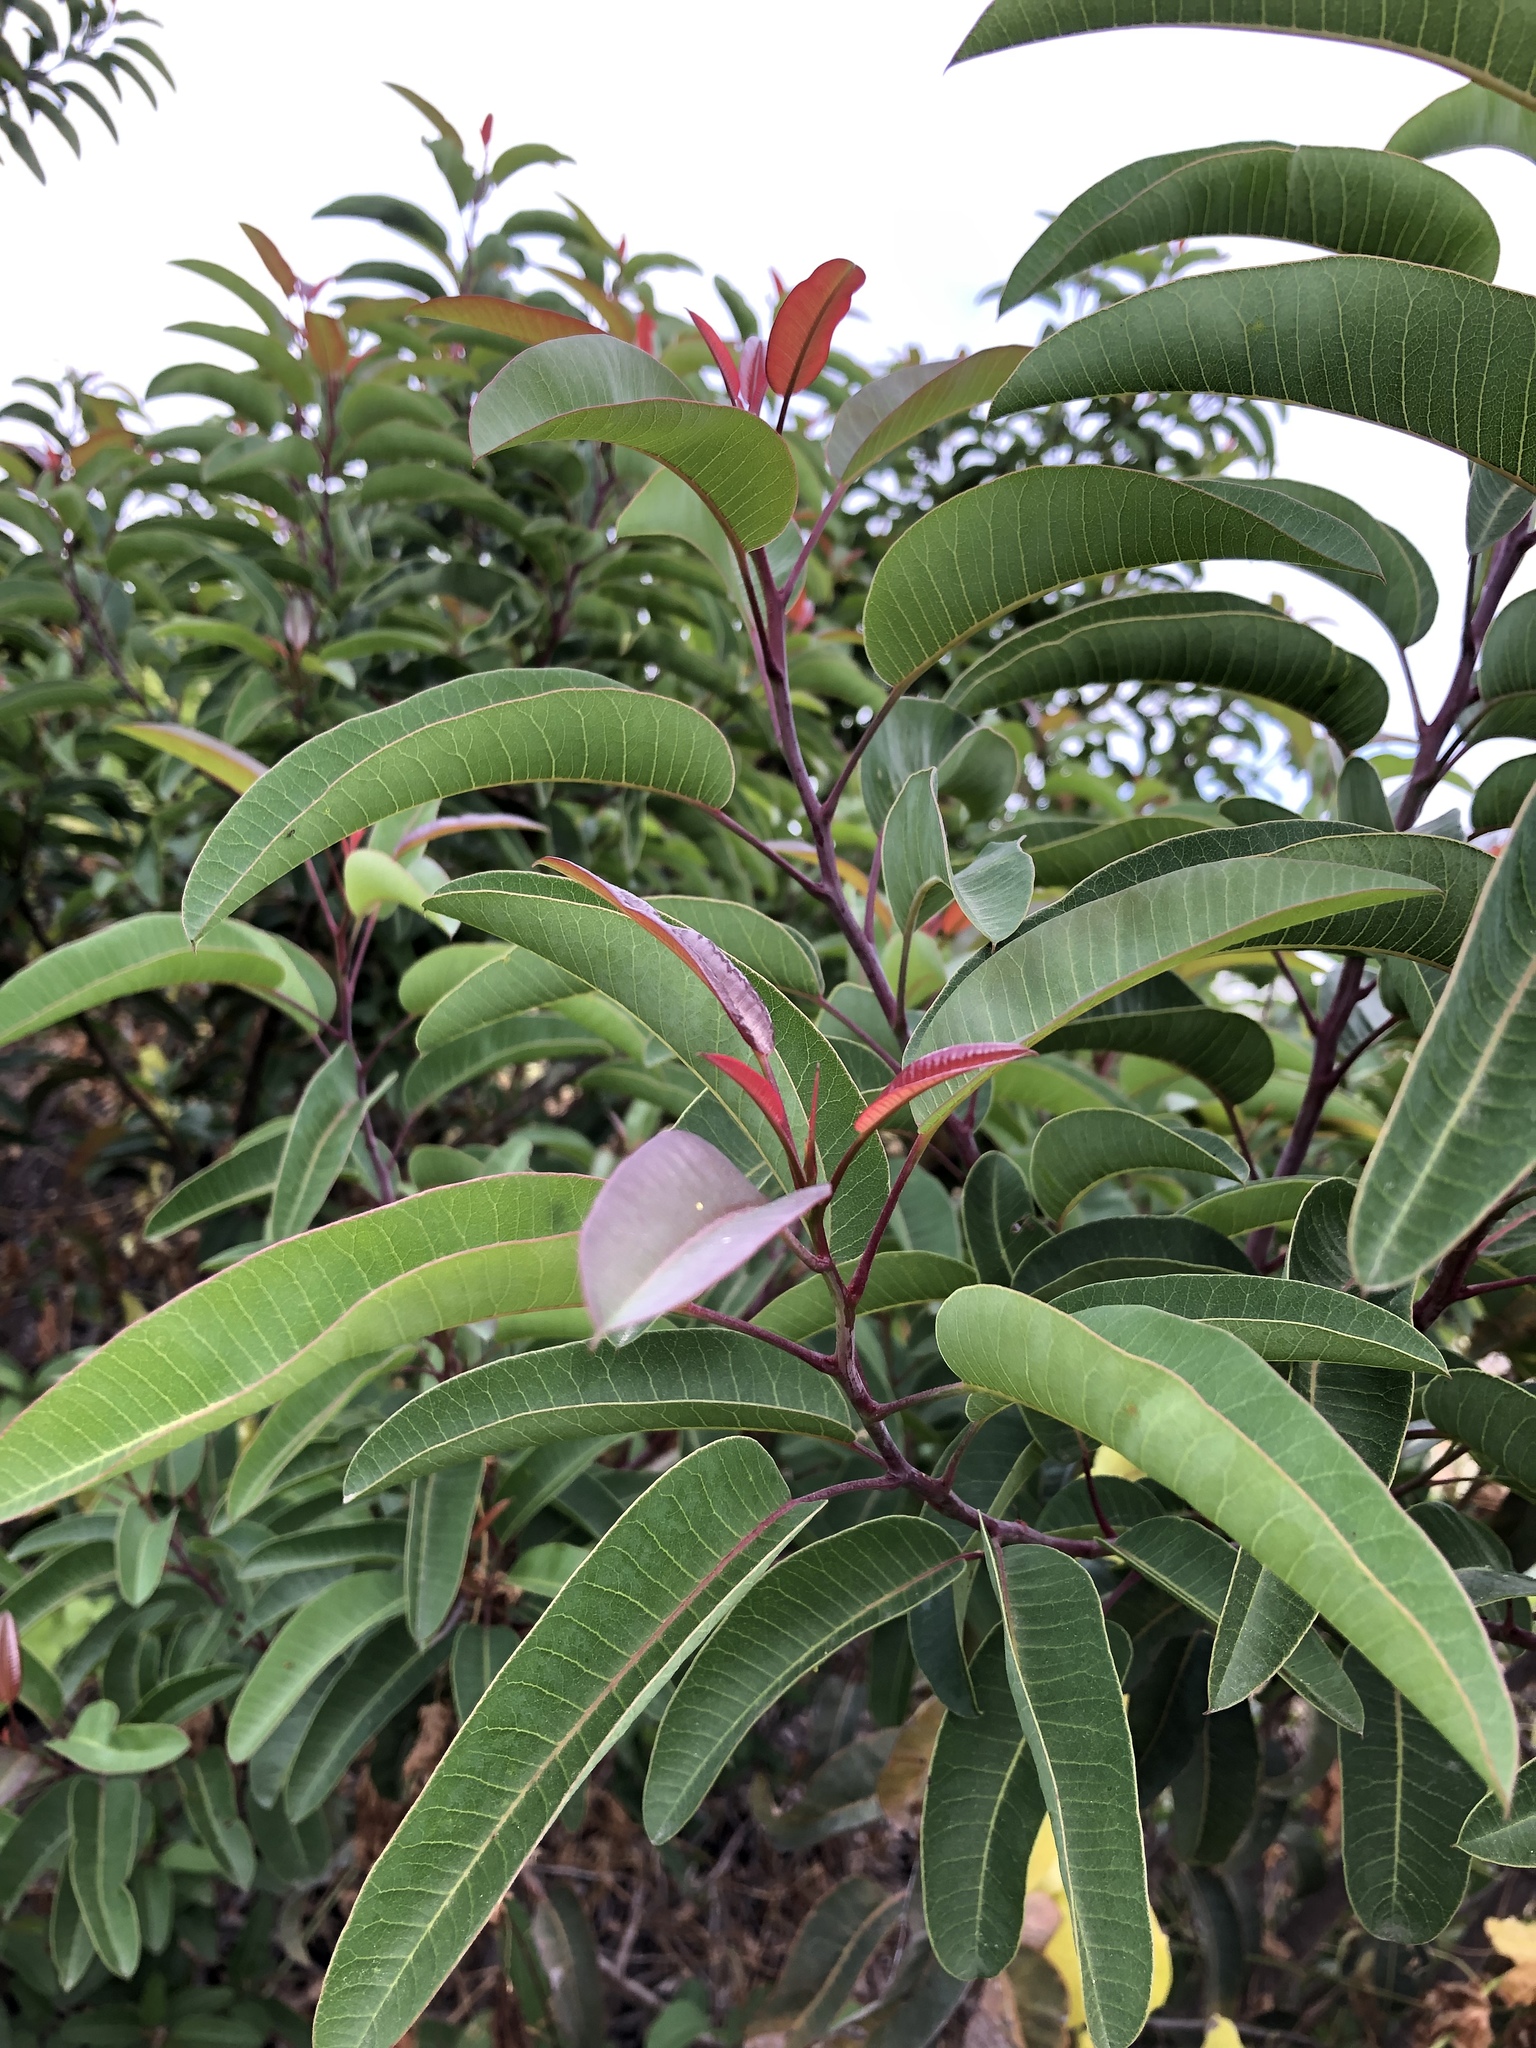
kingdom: Plantae
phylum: Tracheophyta
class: Magnoliopsida
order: Sapindales
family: Anacardiaceae
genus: Malosma
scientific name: Malosma laurina
